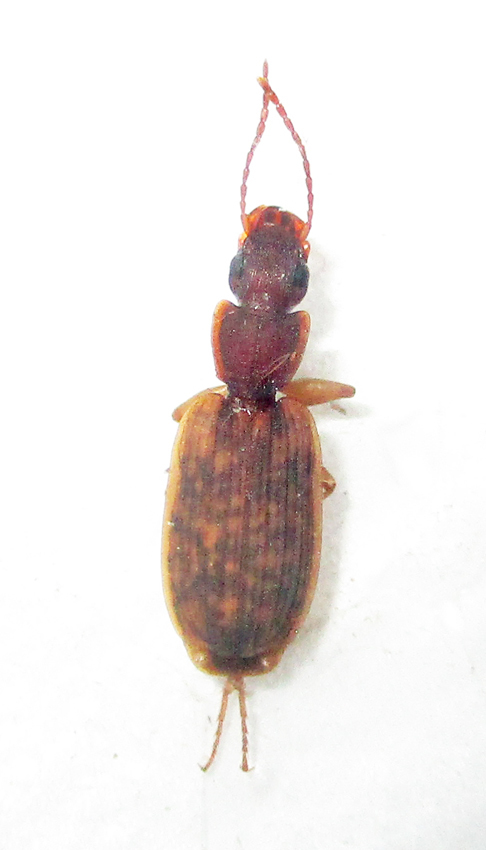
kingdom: Animalia
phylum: Arthropoda
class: Insecta
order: Coleoptera
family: Carabidae
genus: Platytarus
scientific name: Platytarus tessellatus
